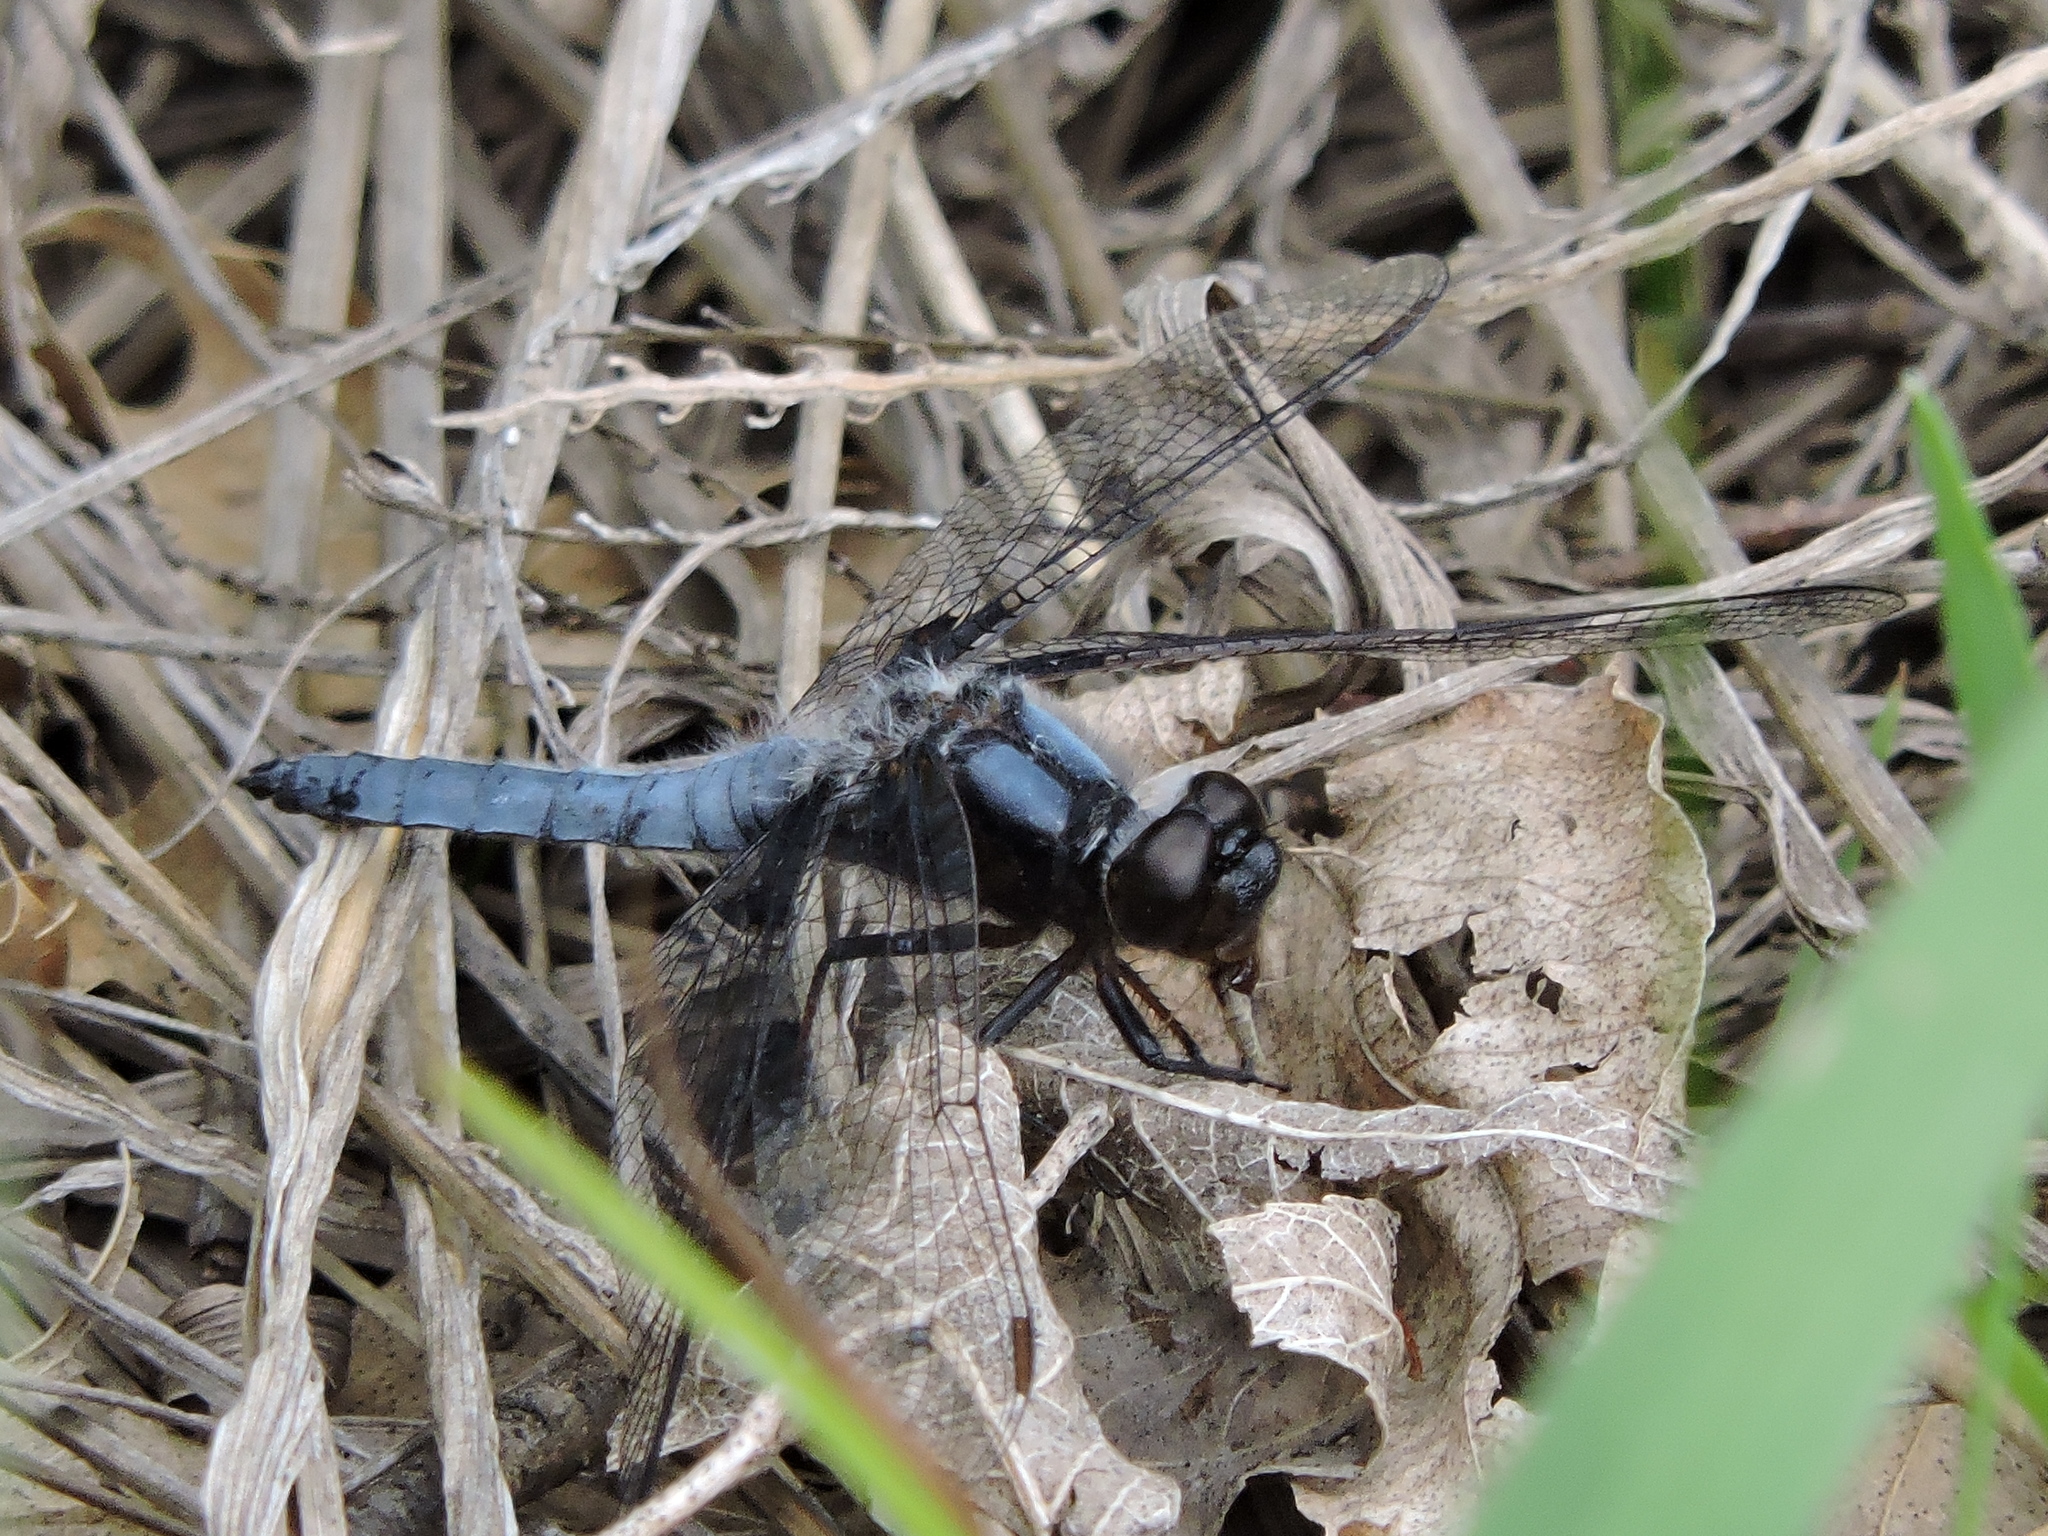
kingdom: Animalia
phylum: Arthropoda
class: Insecta
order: Odonata
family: Libellulidae
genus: Ladona
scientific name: Ladona deplanata
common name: Blue corporal
